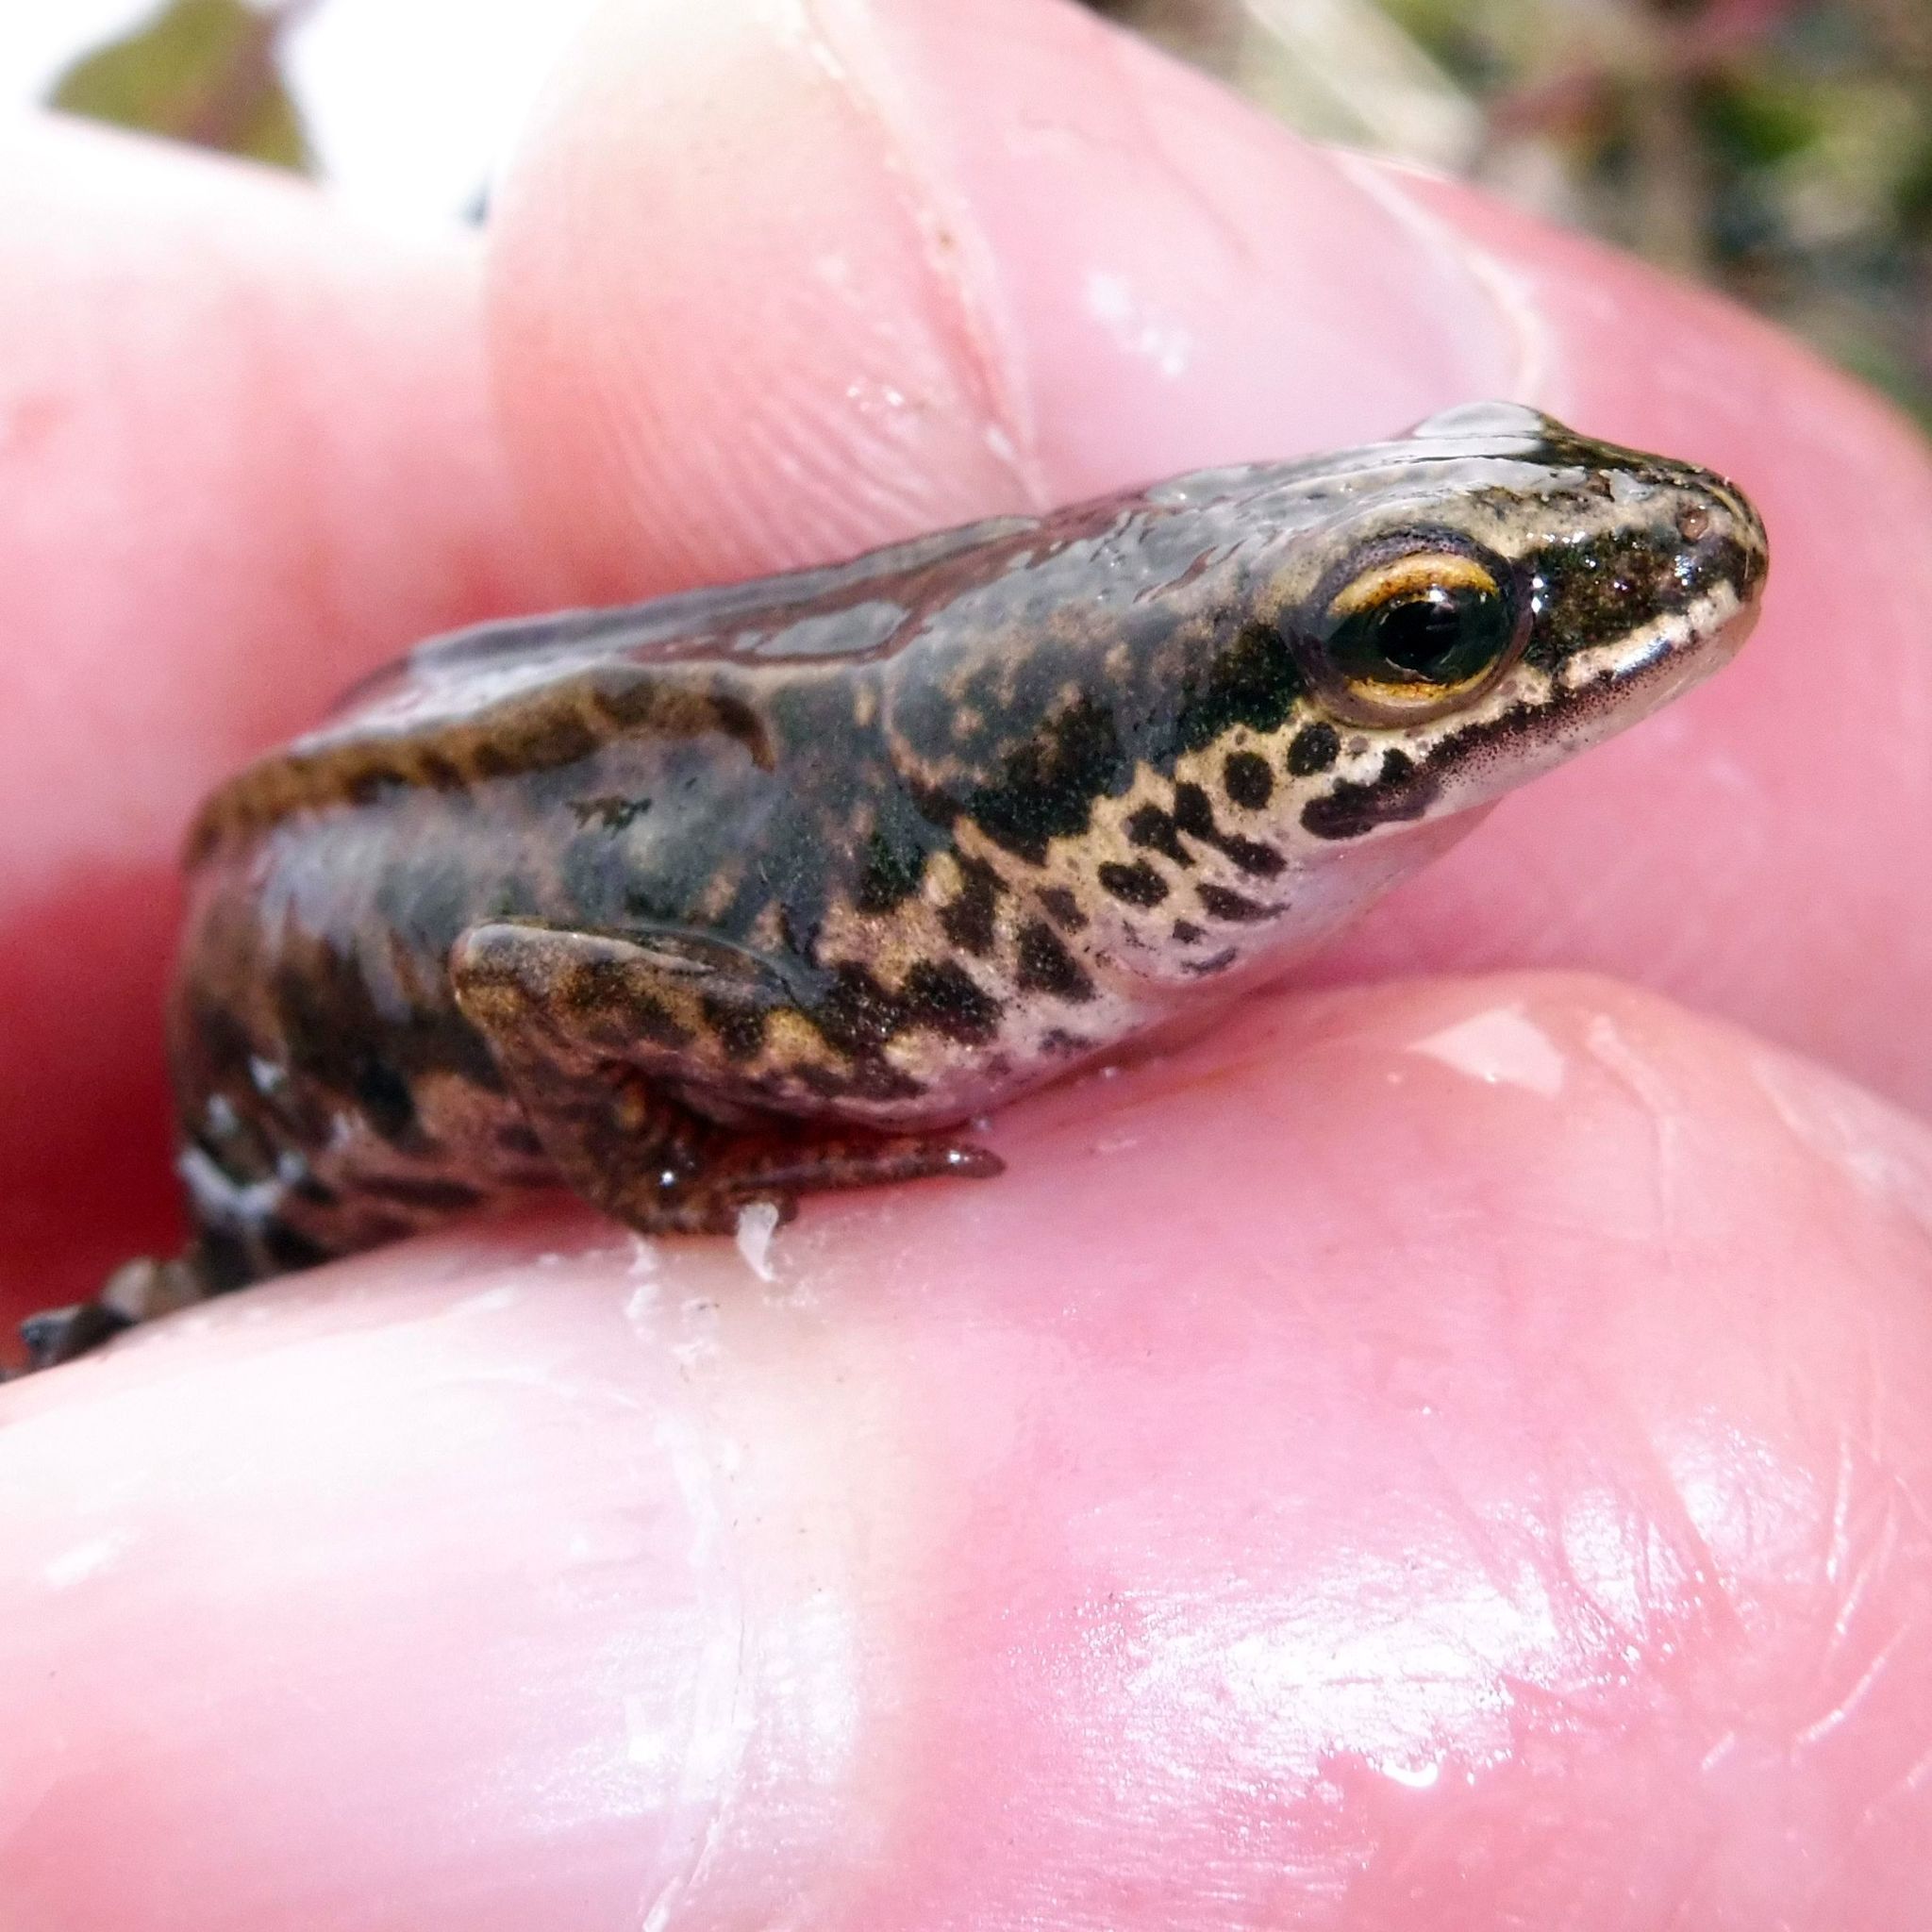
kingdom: Animalia
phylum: Chordata
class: Amphibia
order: Caudata
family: Salamandridae
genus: Lissotriton
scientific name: Lissotriton helveticus
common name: Palmate newt
